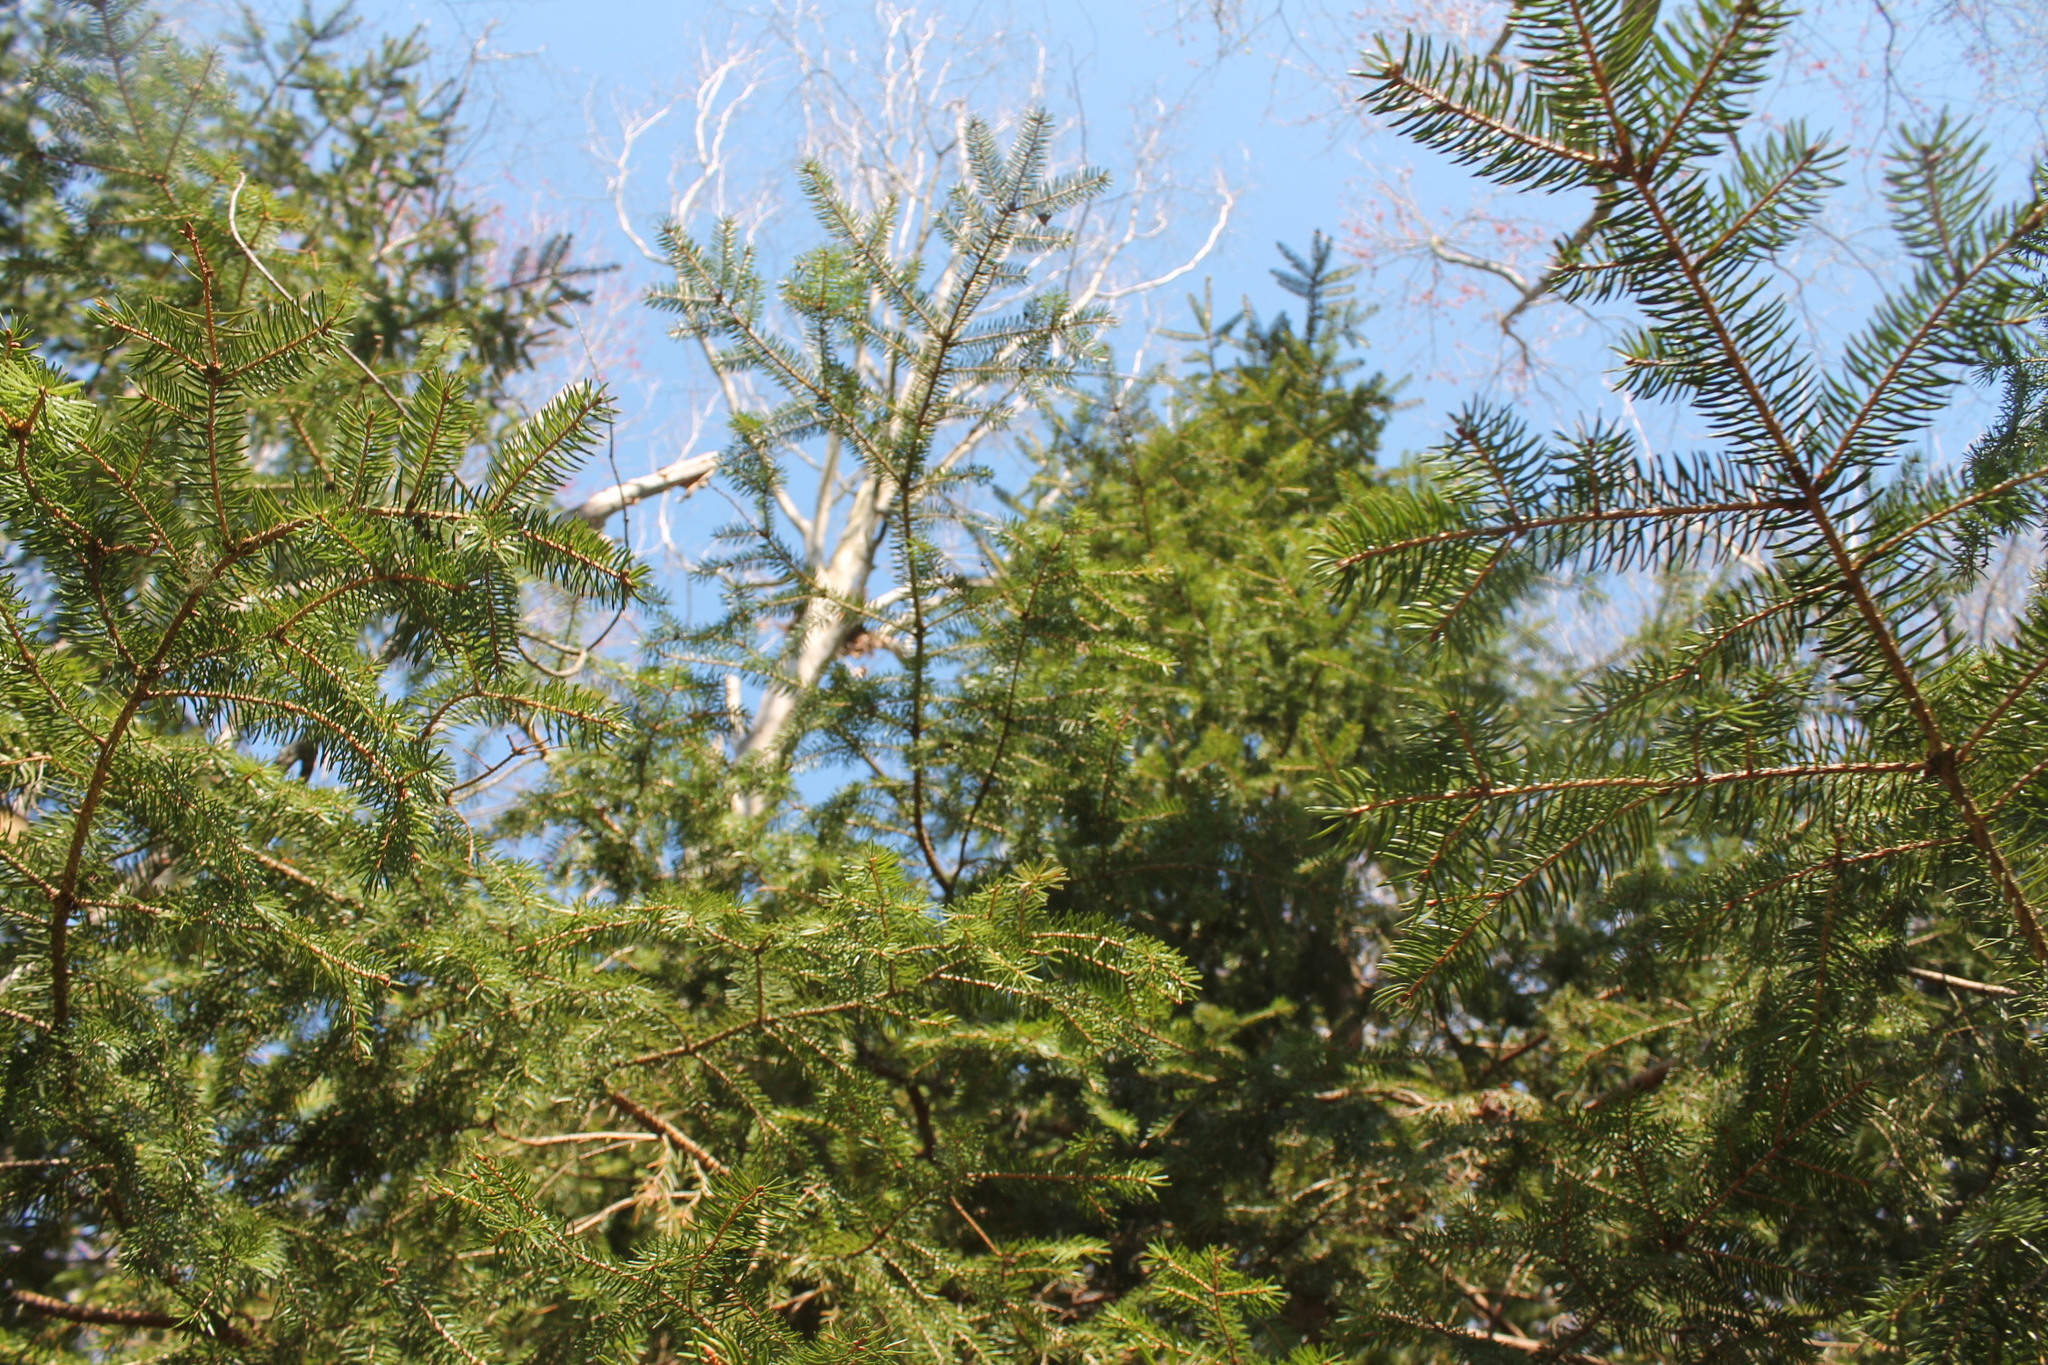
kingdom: Plantae
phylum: Tracheophyta
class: Pinopsida
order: Pinales
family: Pinaceae
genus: Picea
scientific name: Picea abies
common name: Norway spruce
